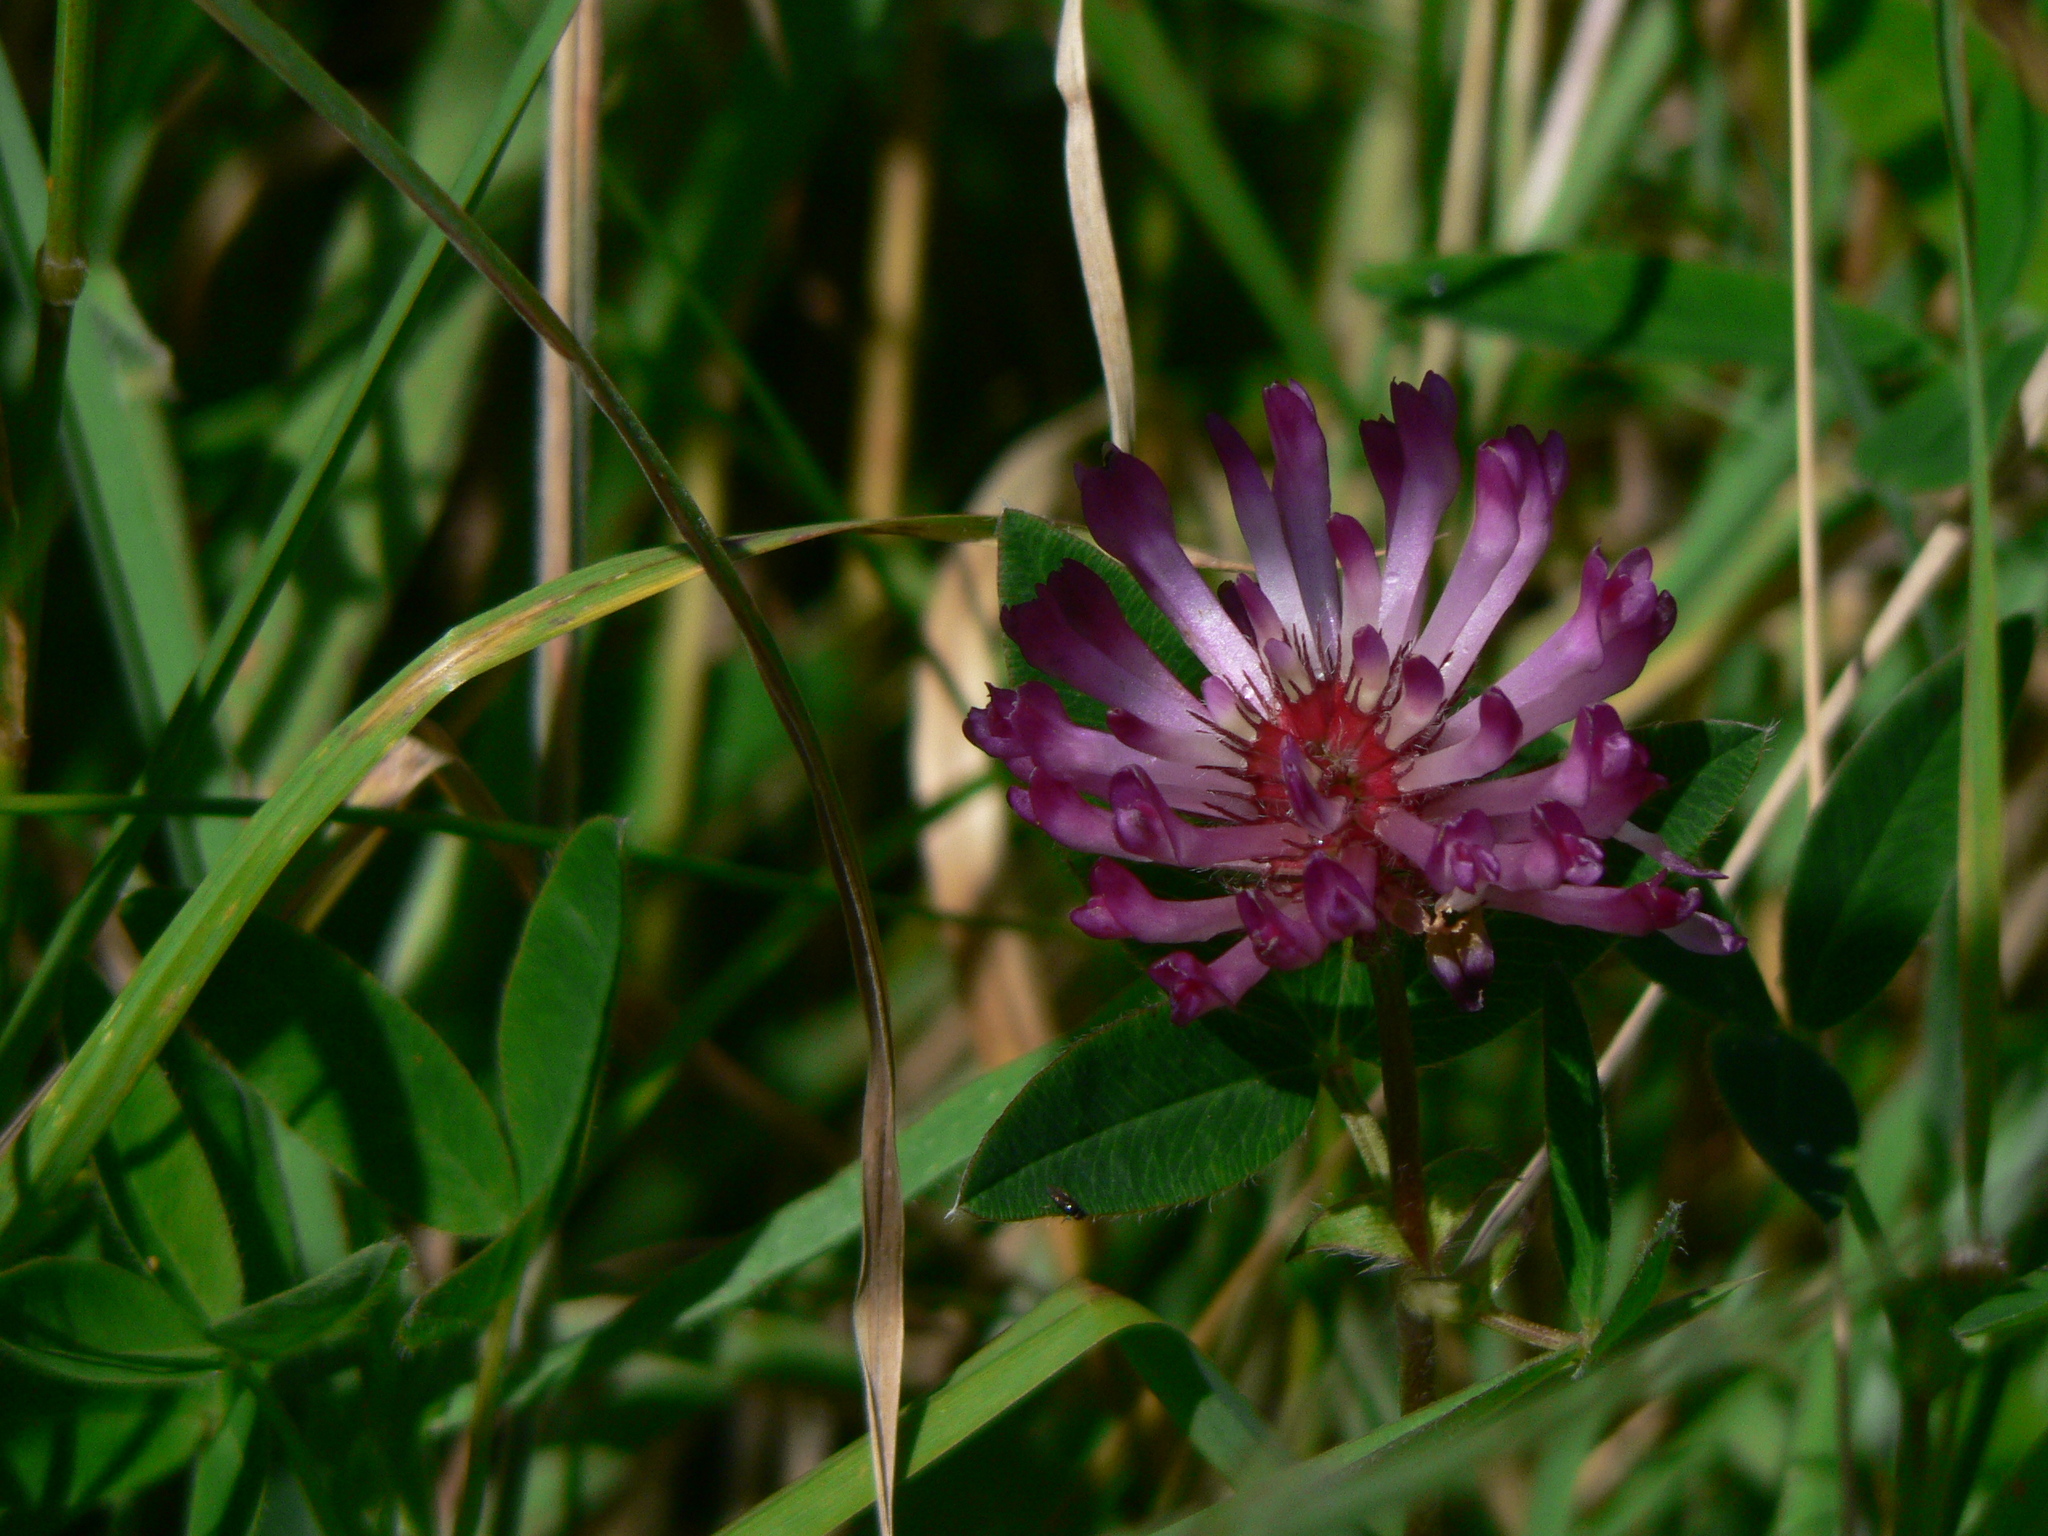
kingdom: Plantae
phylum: Tracheophyta
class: Magnoliopsida
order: Fabales
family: Fabaceae
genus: Trifolium
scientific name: Trifolium medium
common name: Zigzag clover
